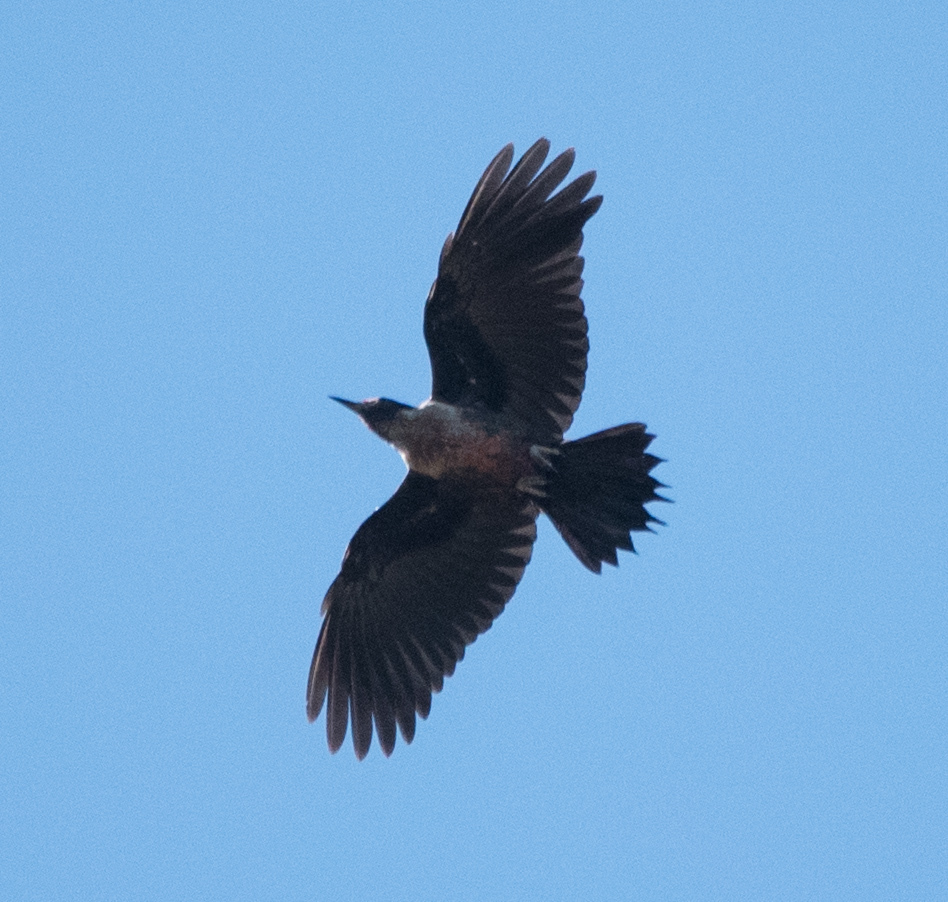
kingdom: Animalia
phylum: Chordata
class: Aves
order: Piciformes
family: Picidae
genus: Melanerpes
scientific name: Melanerpes lewis
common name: Lewis's woodpecker
